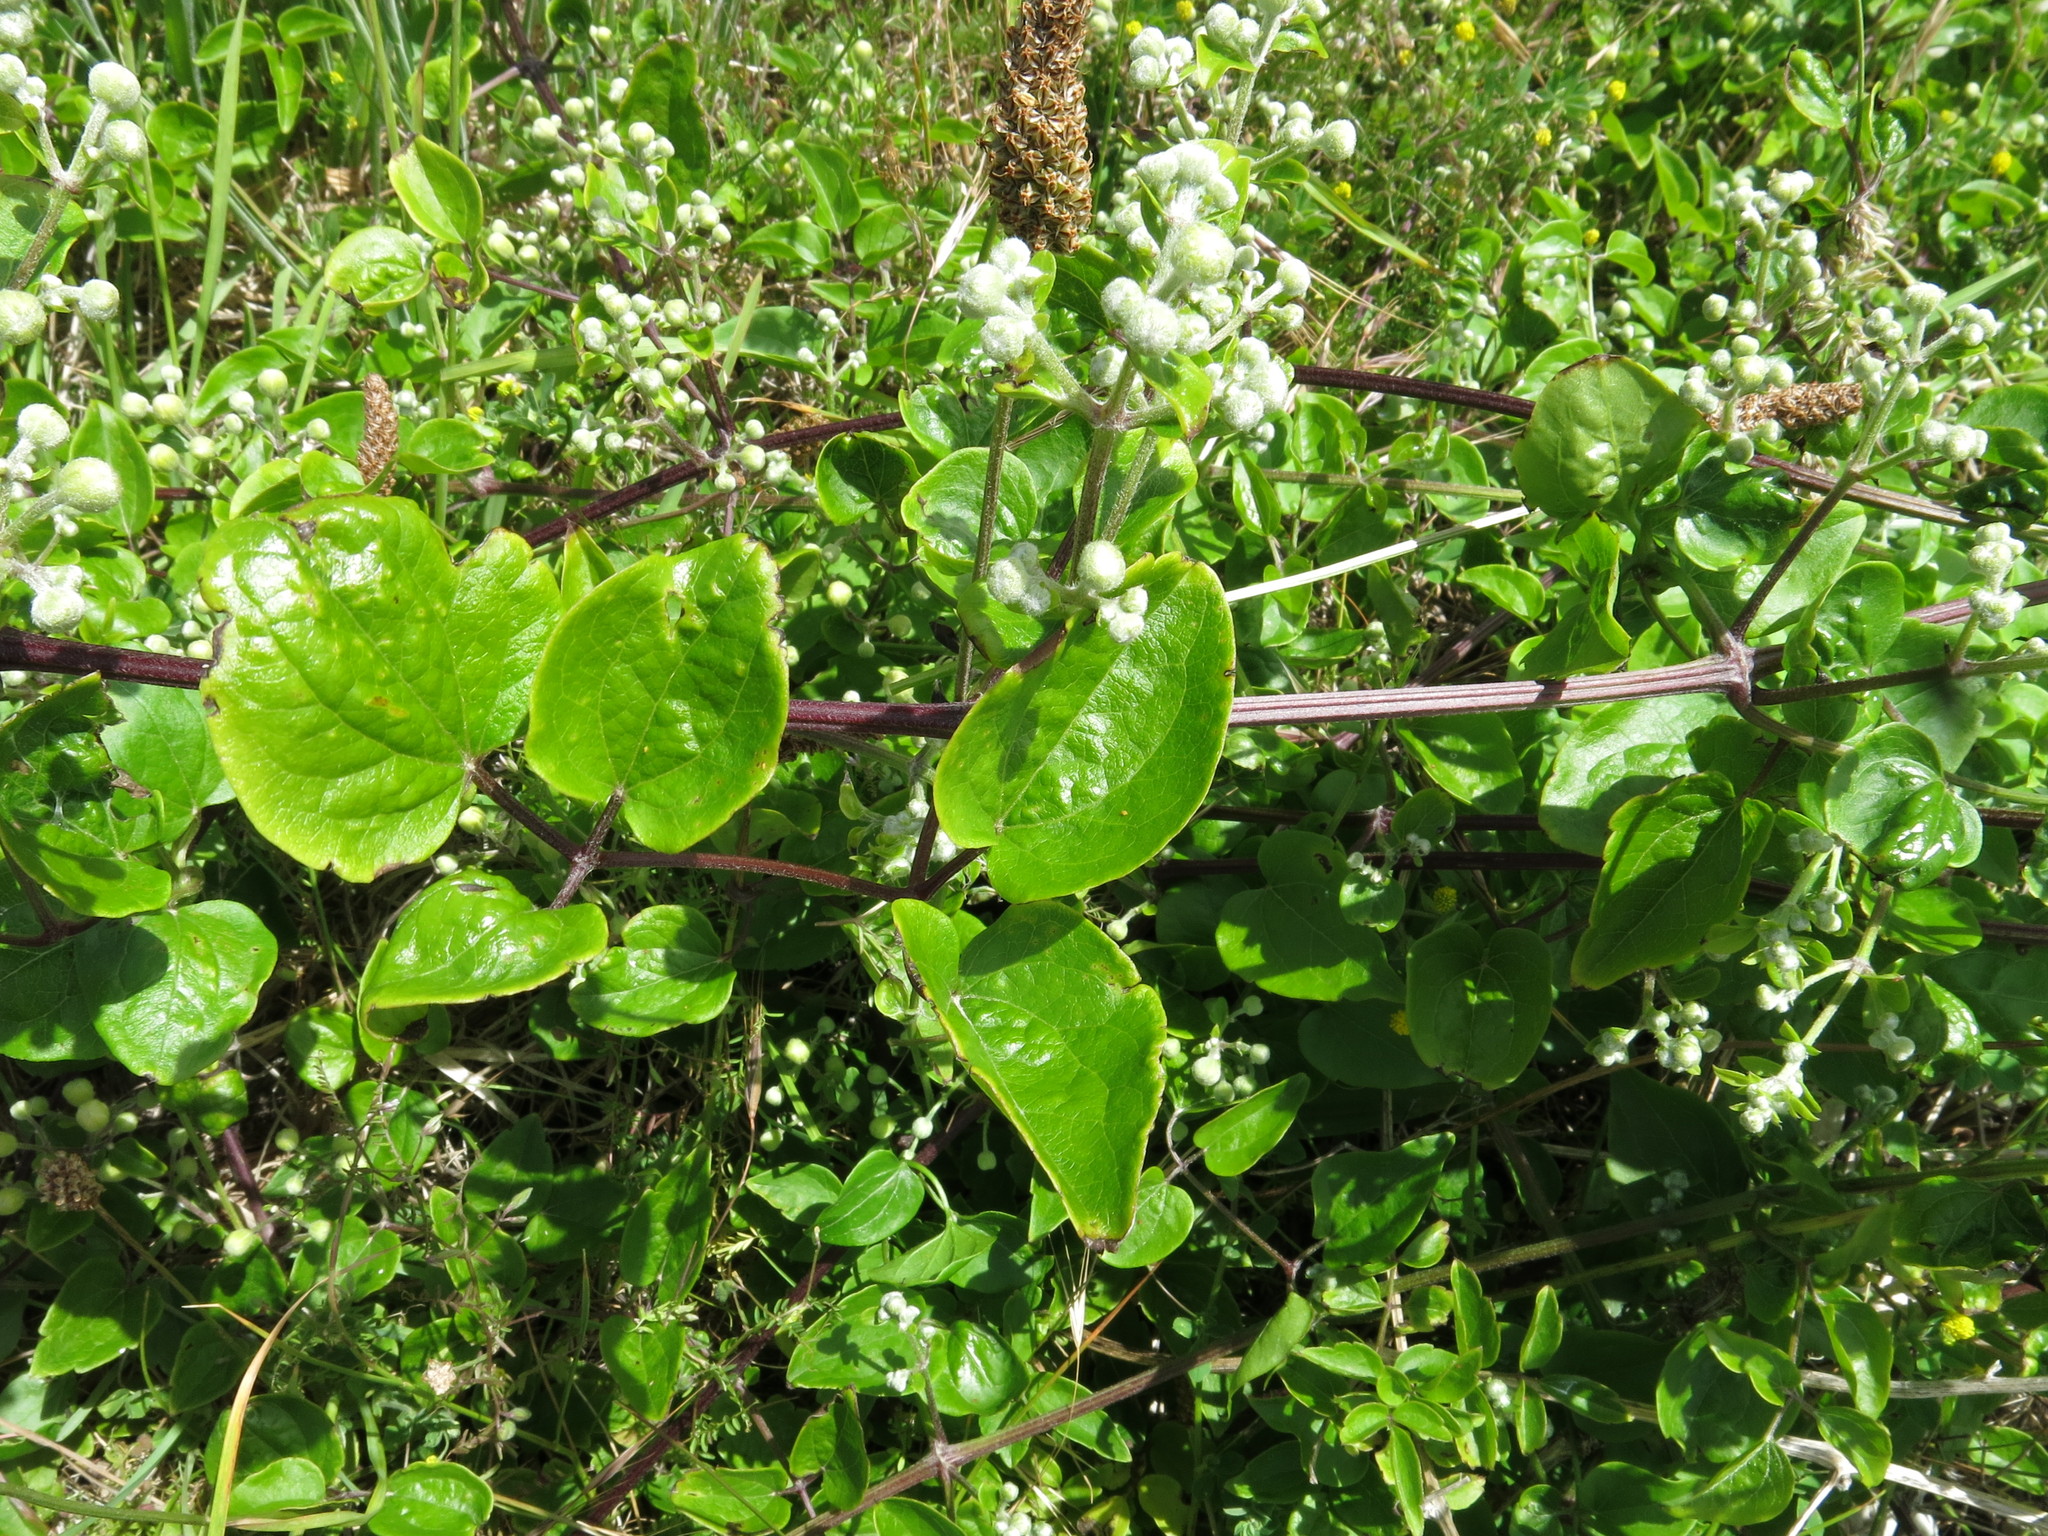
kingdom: Plantae
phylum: Tracheophyta
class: Magnoliopsida
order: Ranunculales
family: Ranunculaceae
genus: Clematis
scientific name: Clematis vitalba
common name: Evergreen clematis
